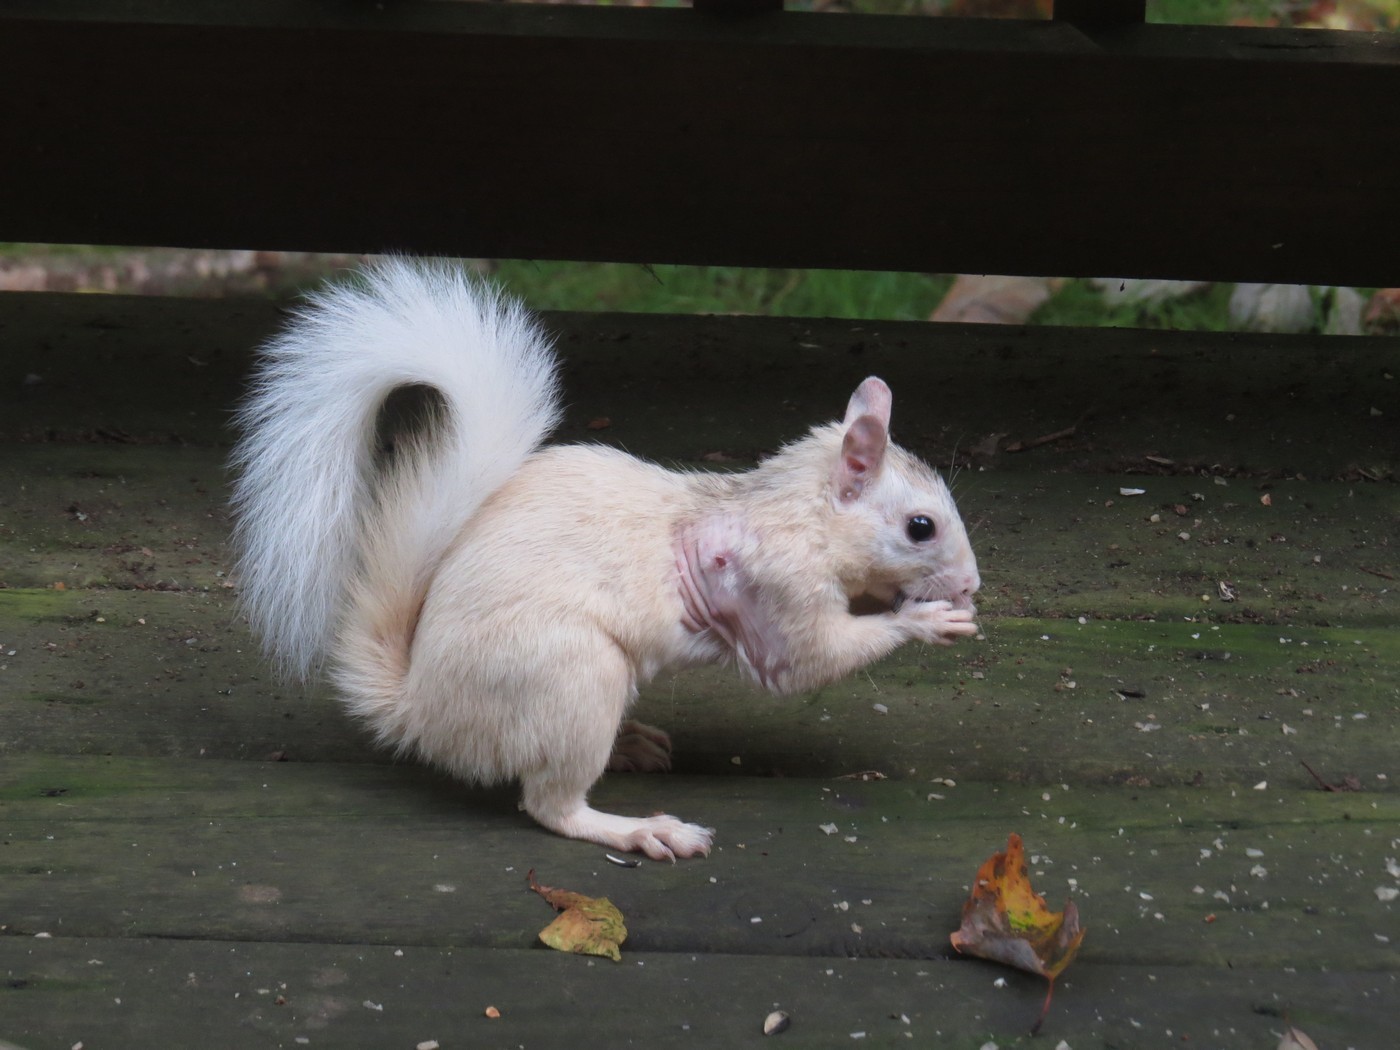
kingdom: Animalia
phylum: Chordata
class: Mammalia
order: Rodentia
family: Sciuridae
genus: Sciurus
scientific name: Sciurus carolinensis
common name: Eastern gray squirrel
